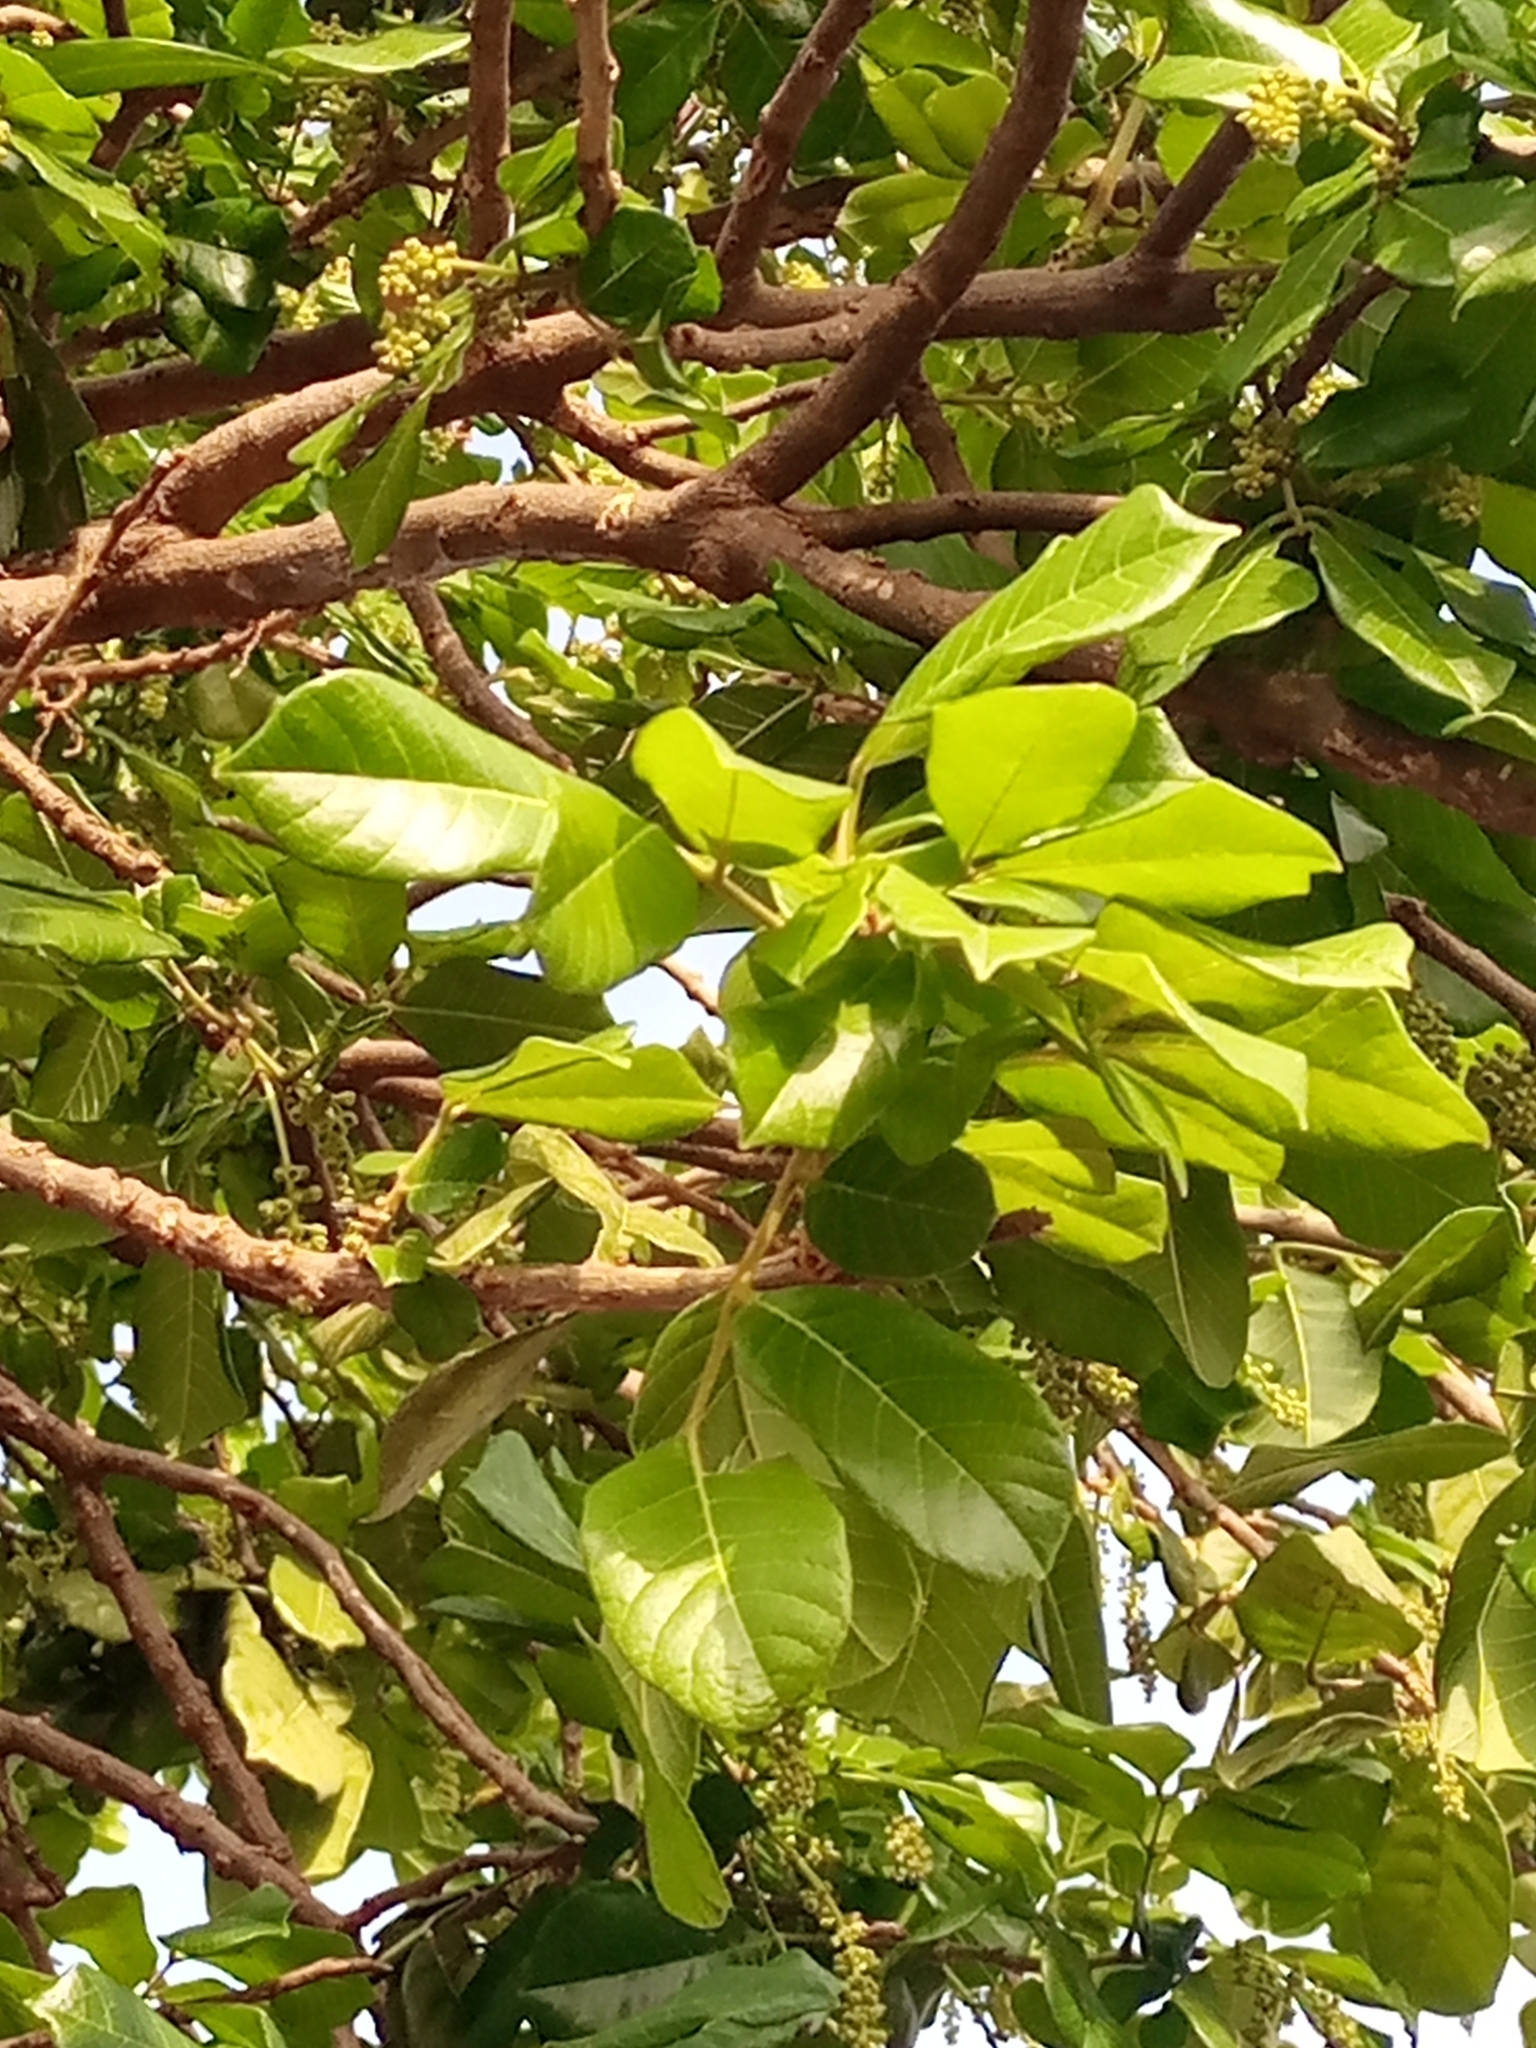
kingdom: Plantae
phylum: Tracheophyta
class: Magnoliopsida
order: Sapindales
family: Sapindaceae
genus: Blighia
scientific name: Blighia sapida
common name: Akee
